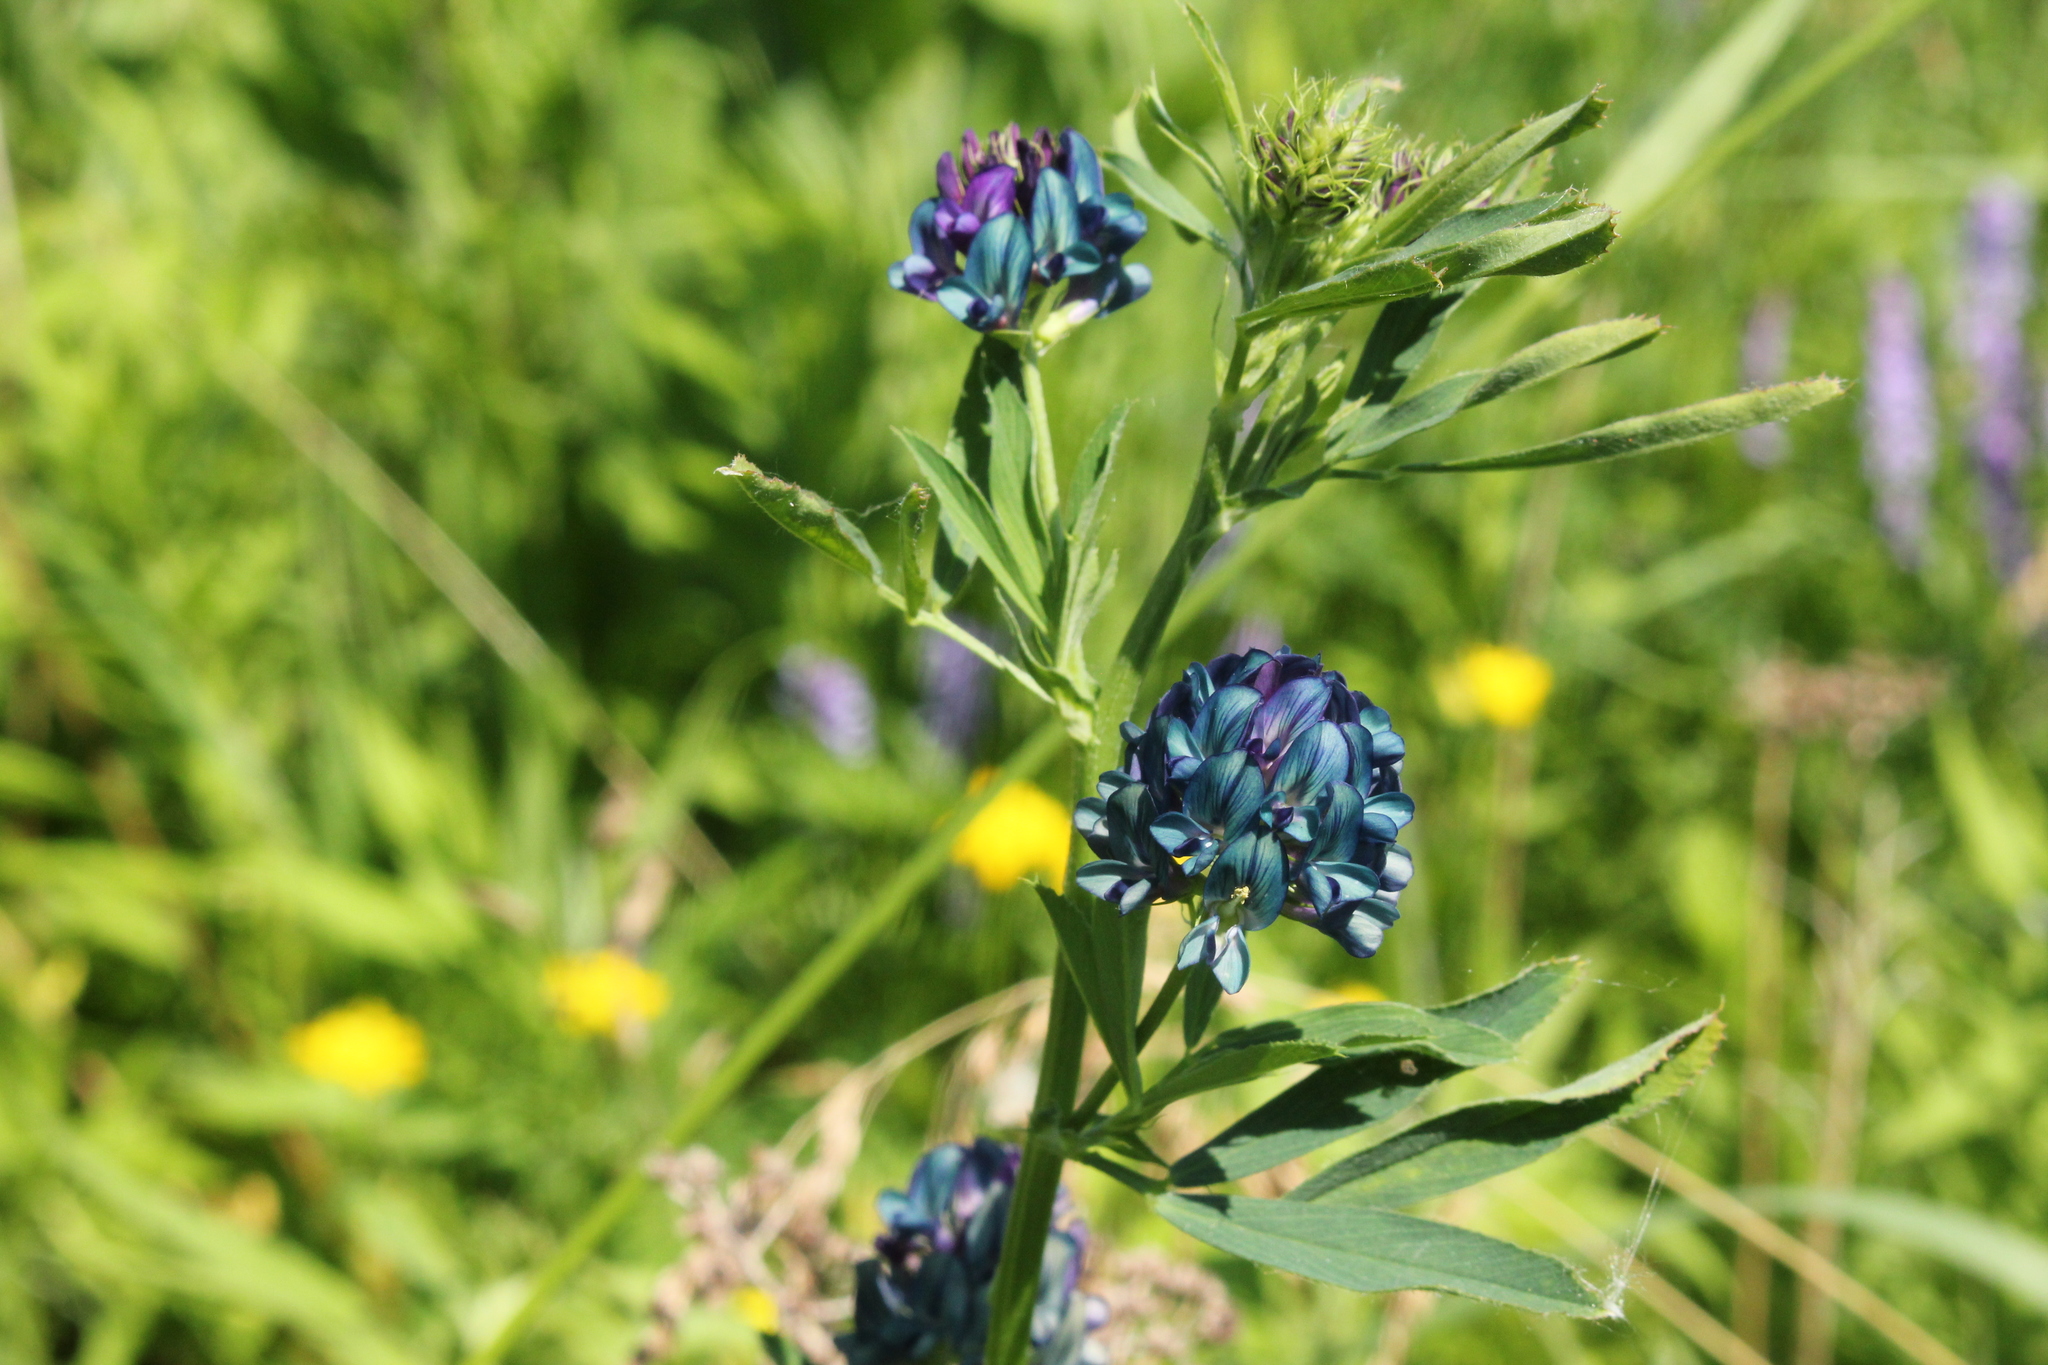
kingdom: Plantae
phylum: Tracheophyta
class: Magnoliopsida
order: Fabales
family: Fabaceae
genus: Medicago
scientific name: Medicago sativa
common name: Alfalfa
